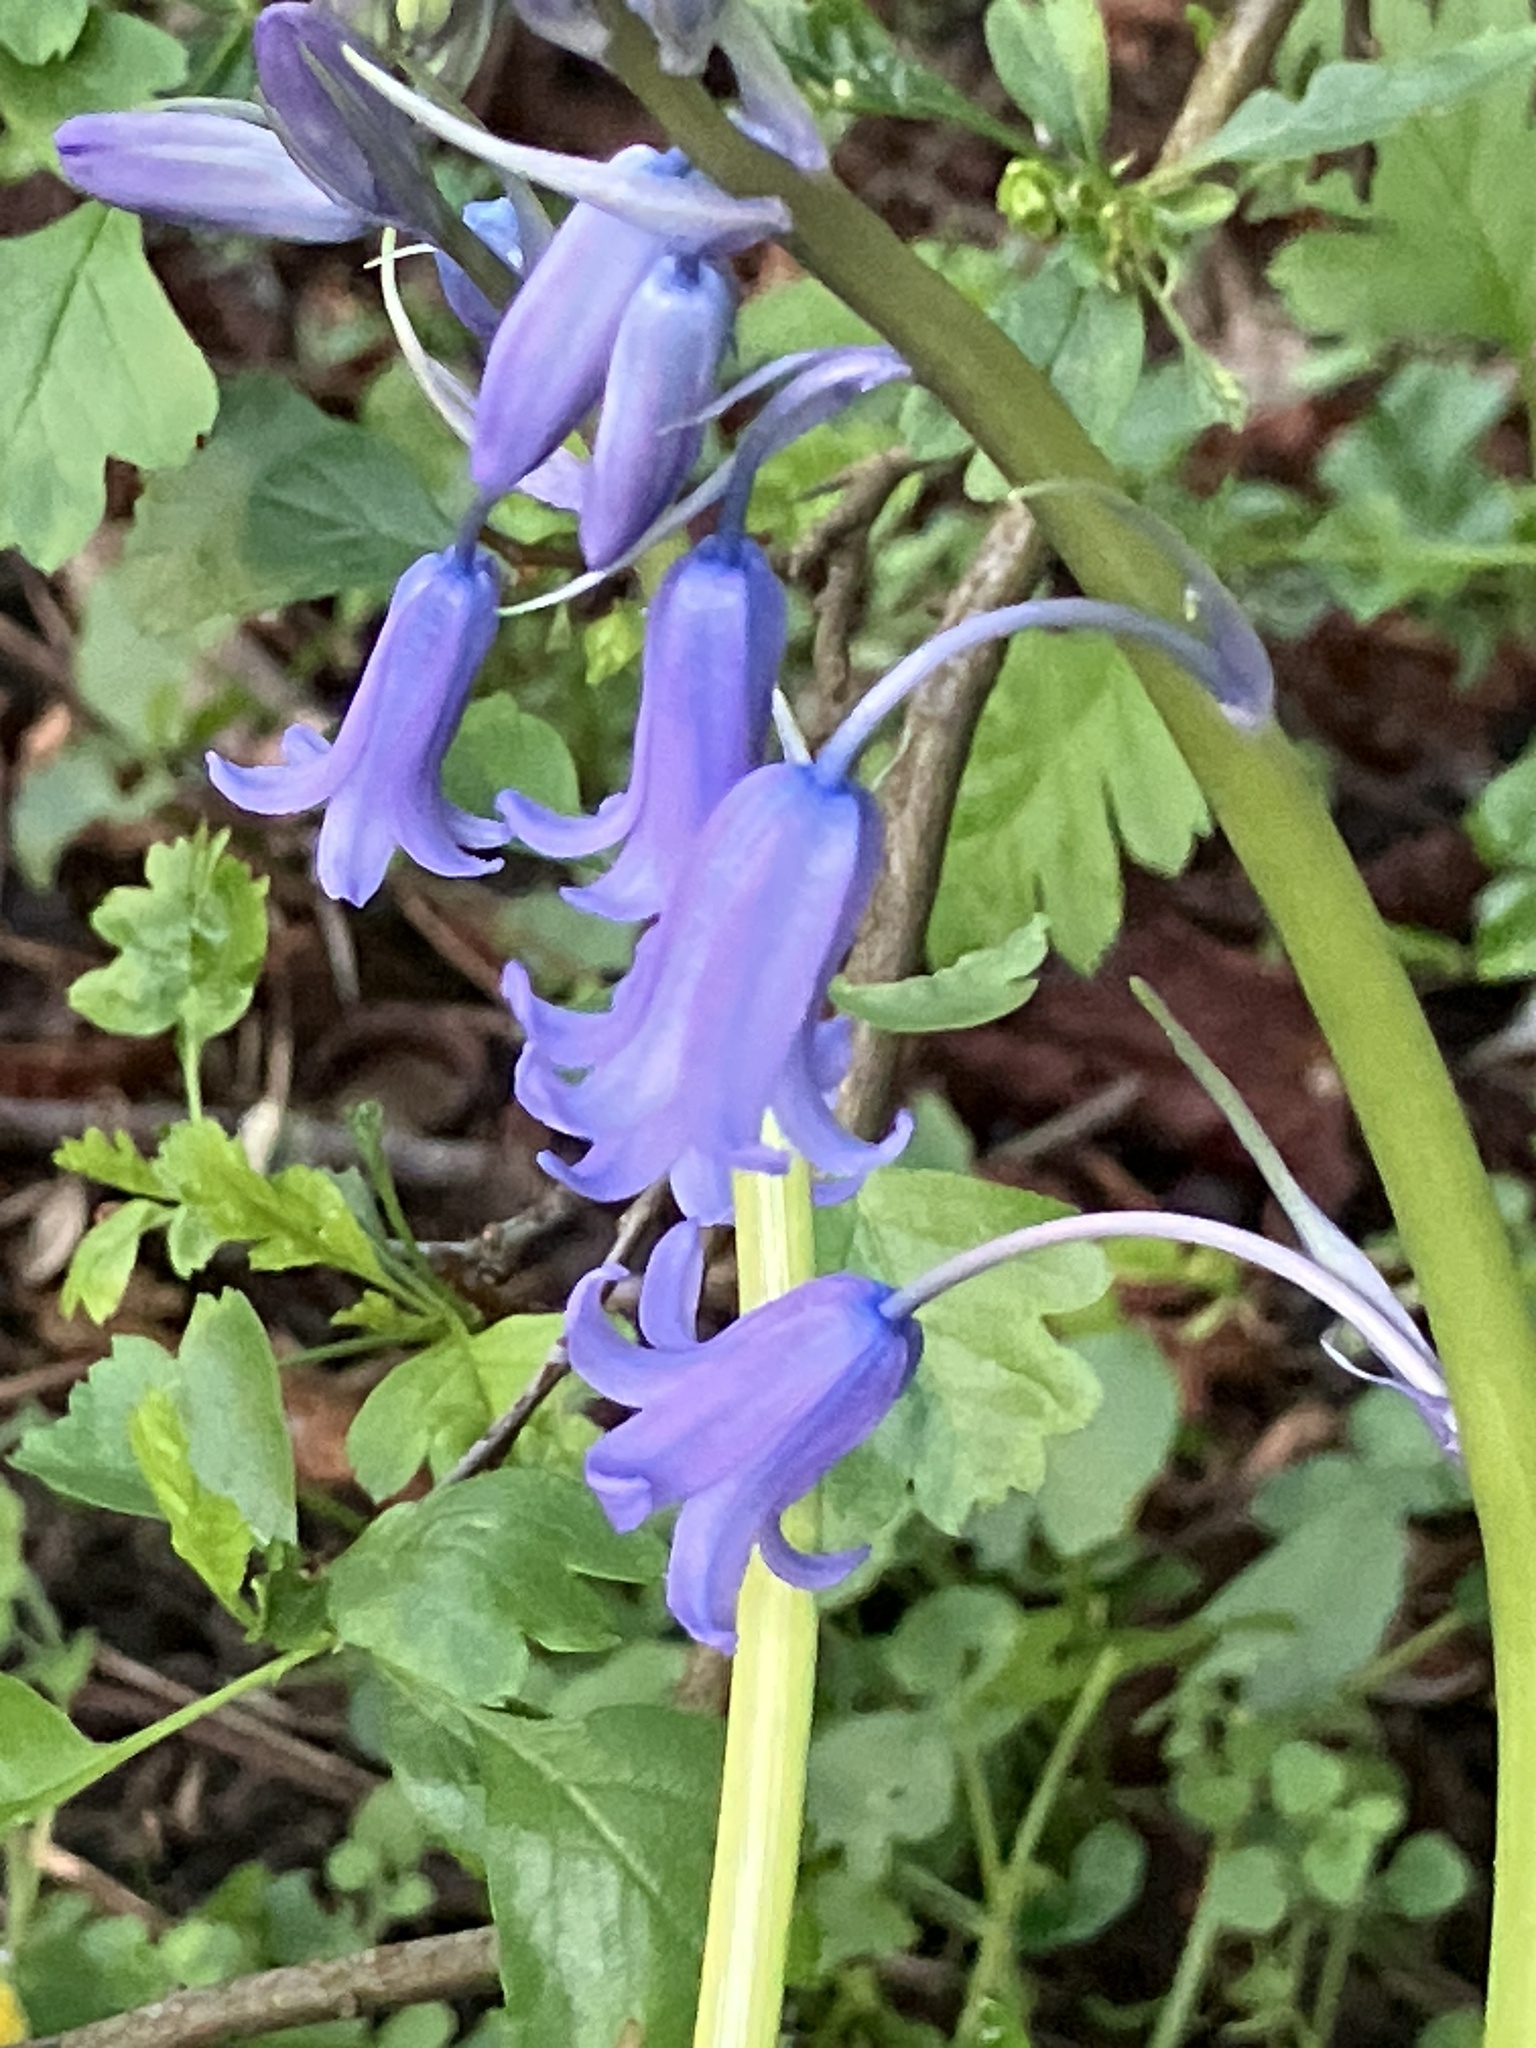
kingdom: Plantae
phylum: Tracheophyta
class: Liliopsida
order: Asparagales
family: Asparagaceae
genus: Hyacinthoides
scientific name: Hyacinthoides non-scripta
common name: Bluebell
